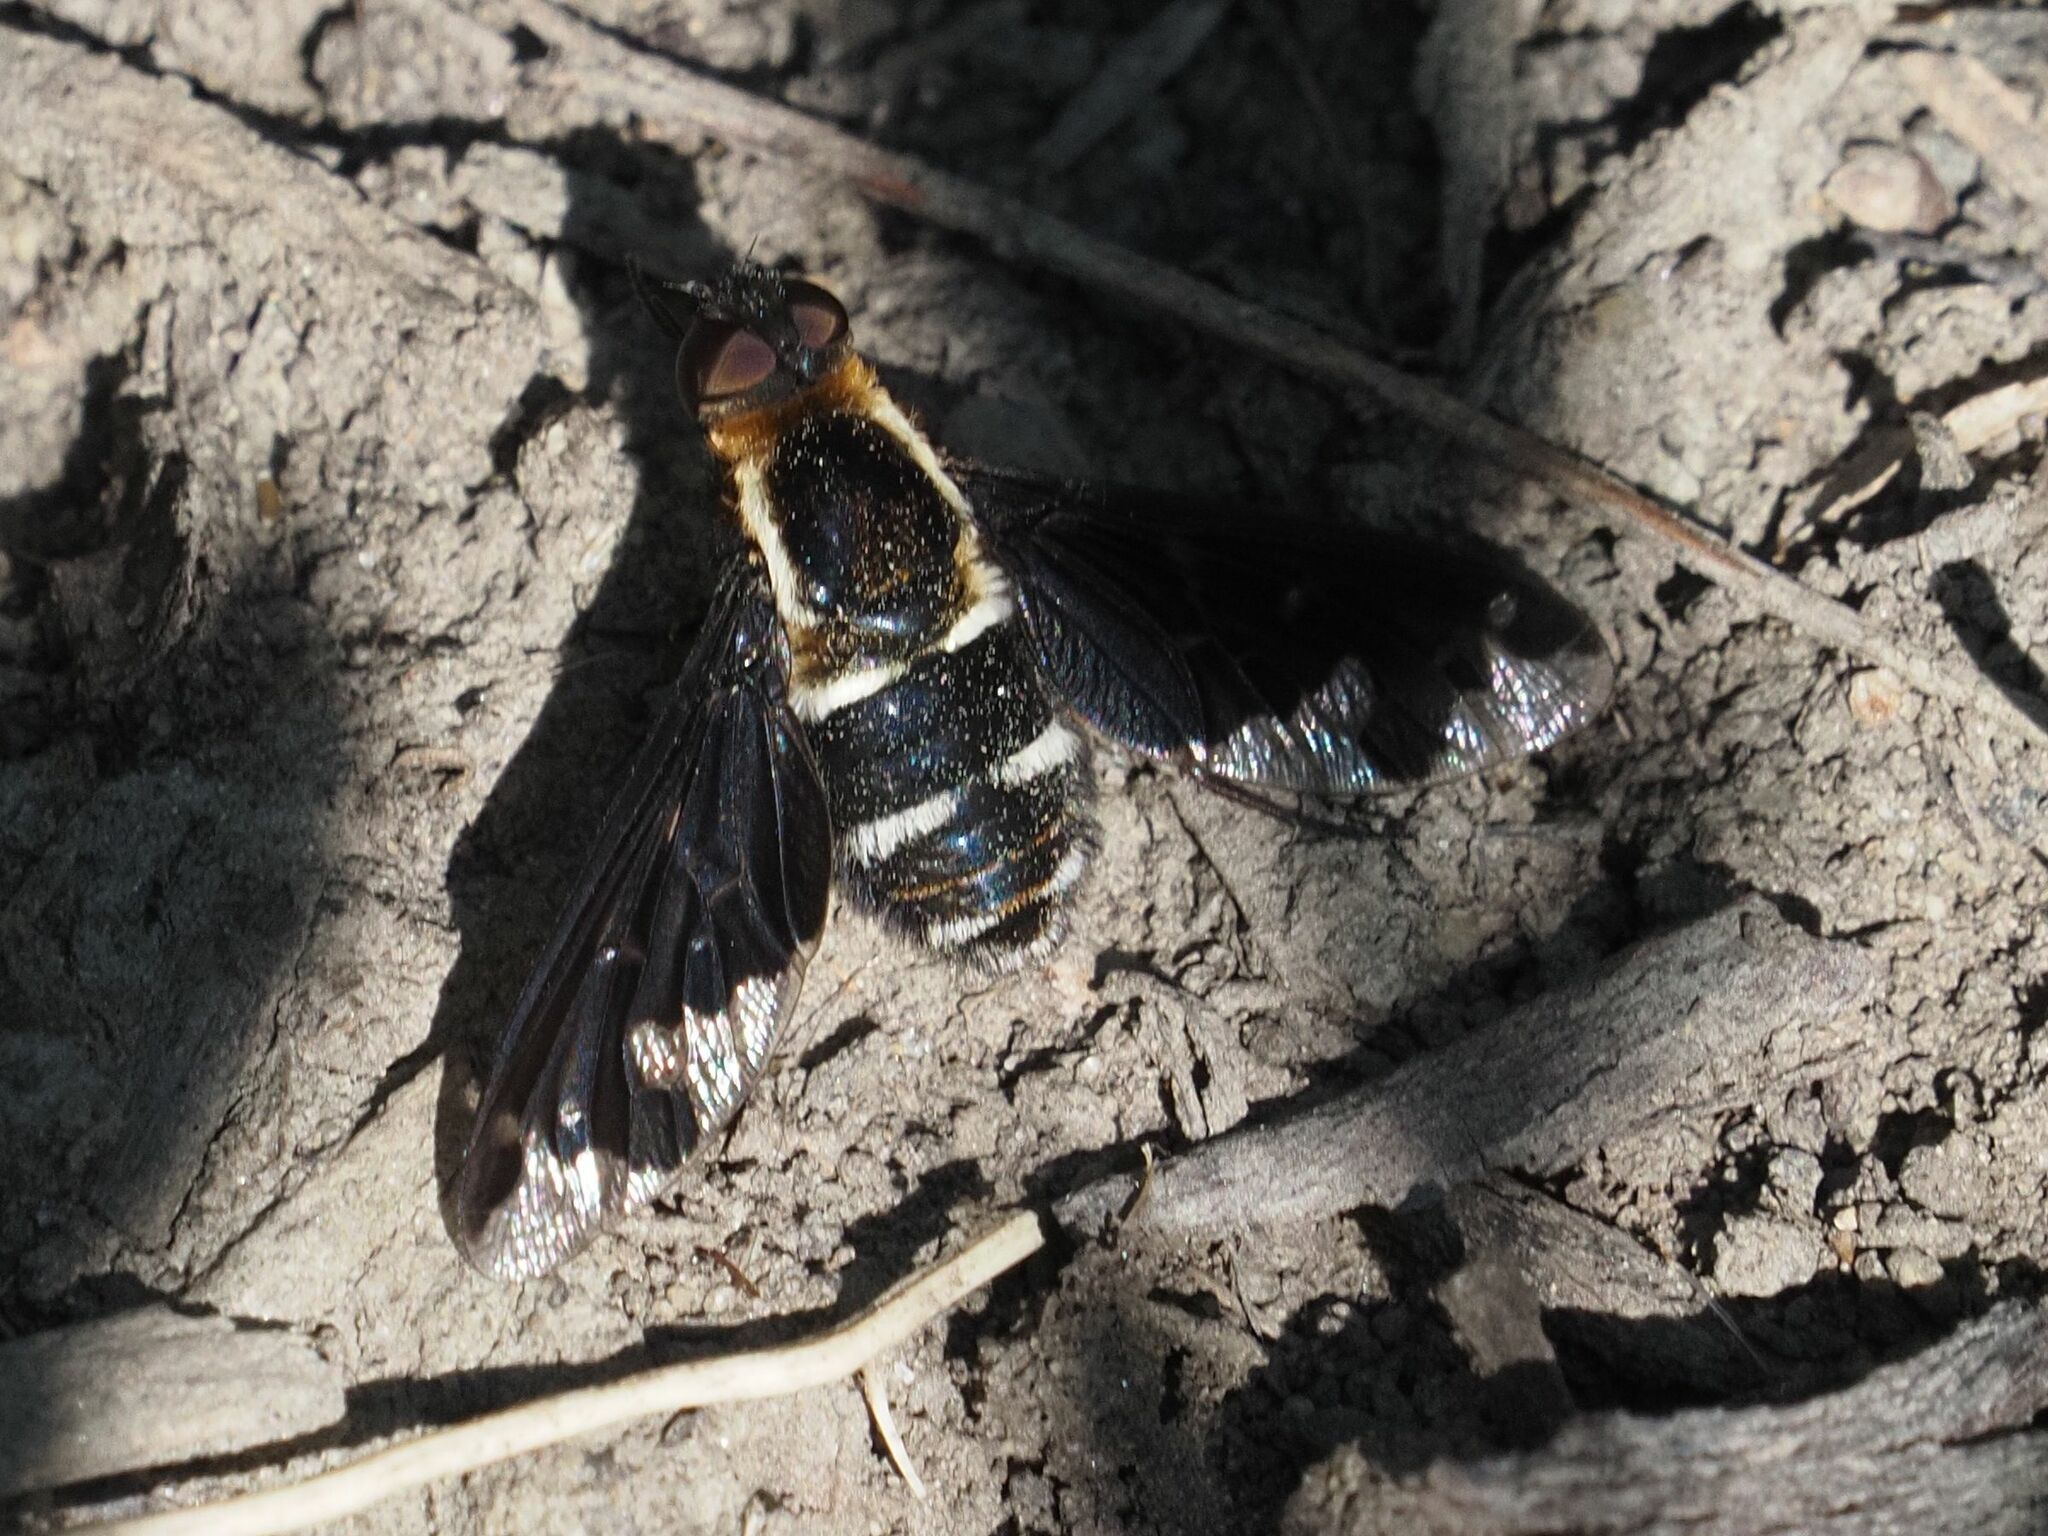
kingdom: Animalia
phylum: Arthropoda
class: Insecta
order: Diptera
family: Bombyliidae
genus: Hemipenthes
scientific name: Hemipenthes maura
